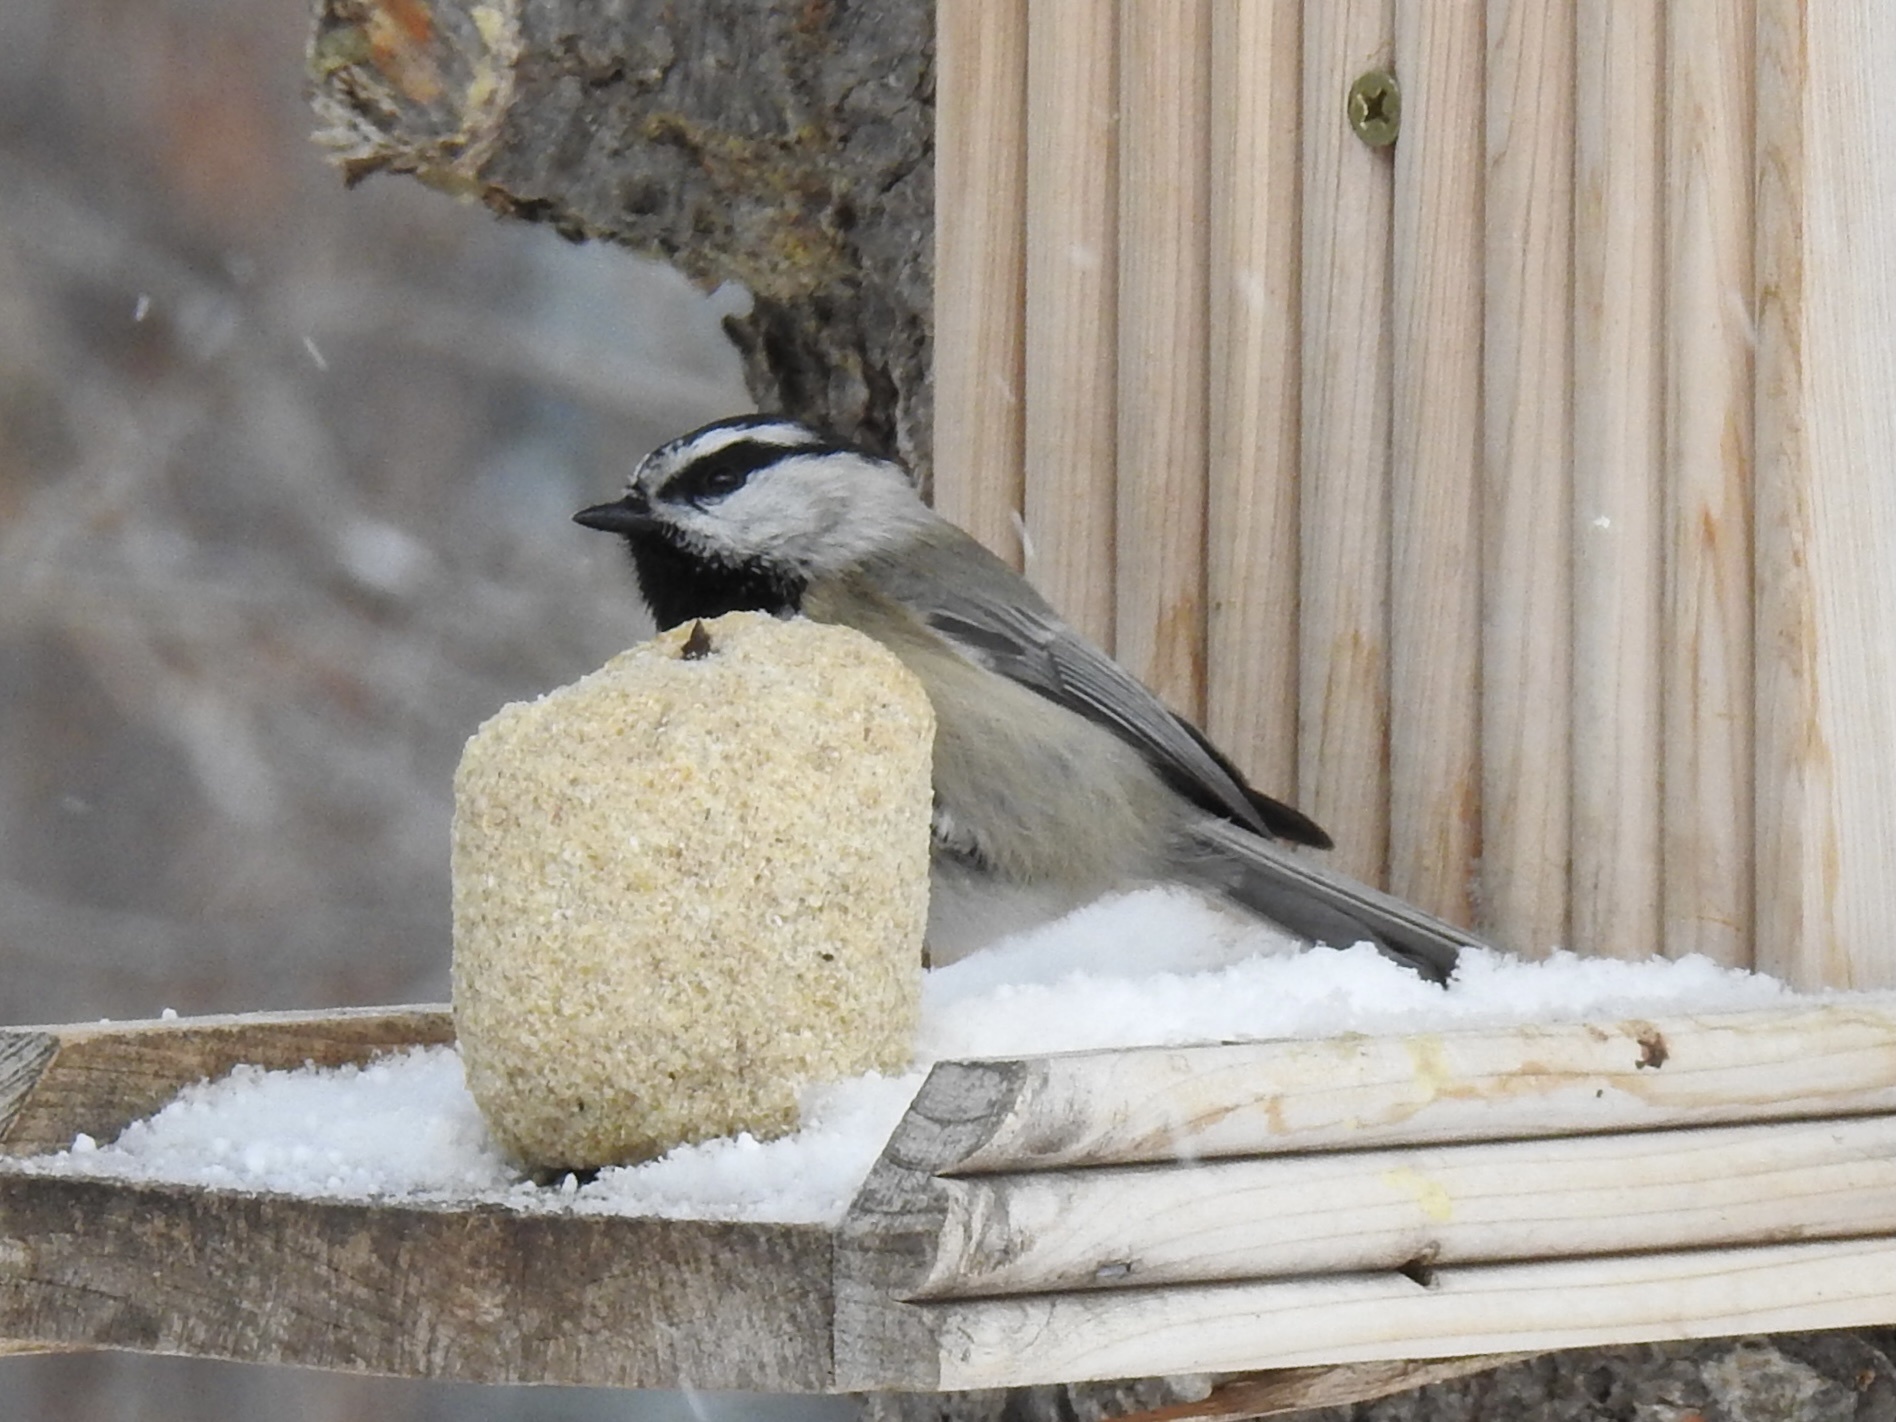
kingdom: Animalia
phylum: Chordata
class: Aves
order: Passeriformes
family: Paridae
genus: Poecile
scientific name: Poecile gambeli
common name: Mountain chickadee
